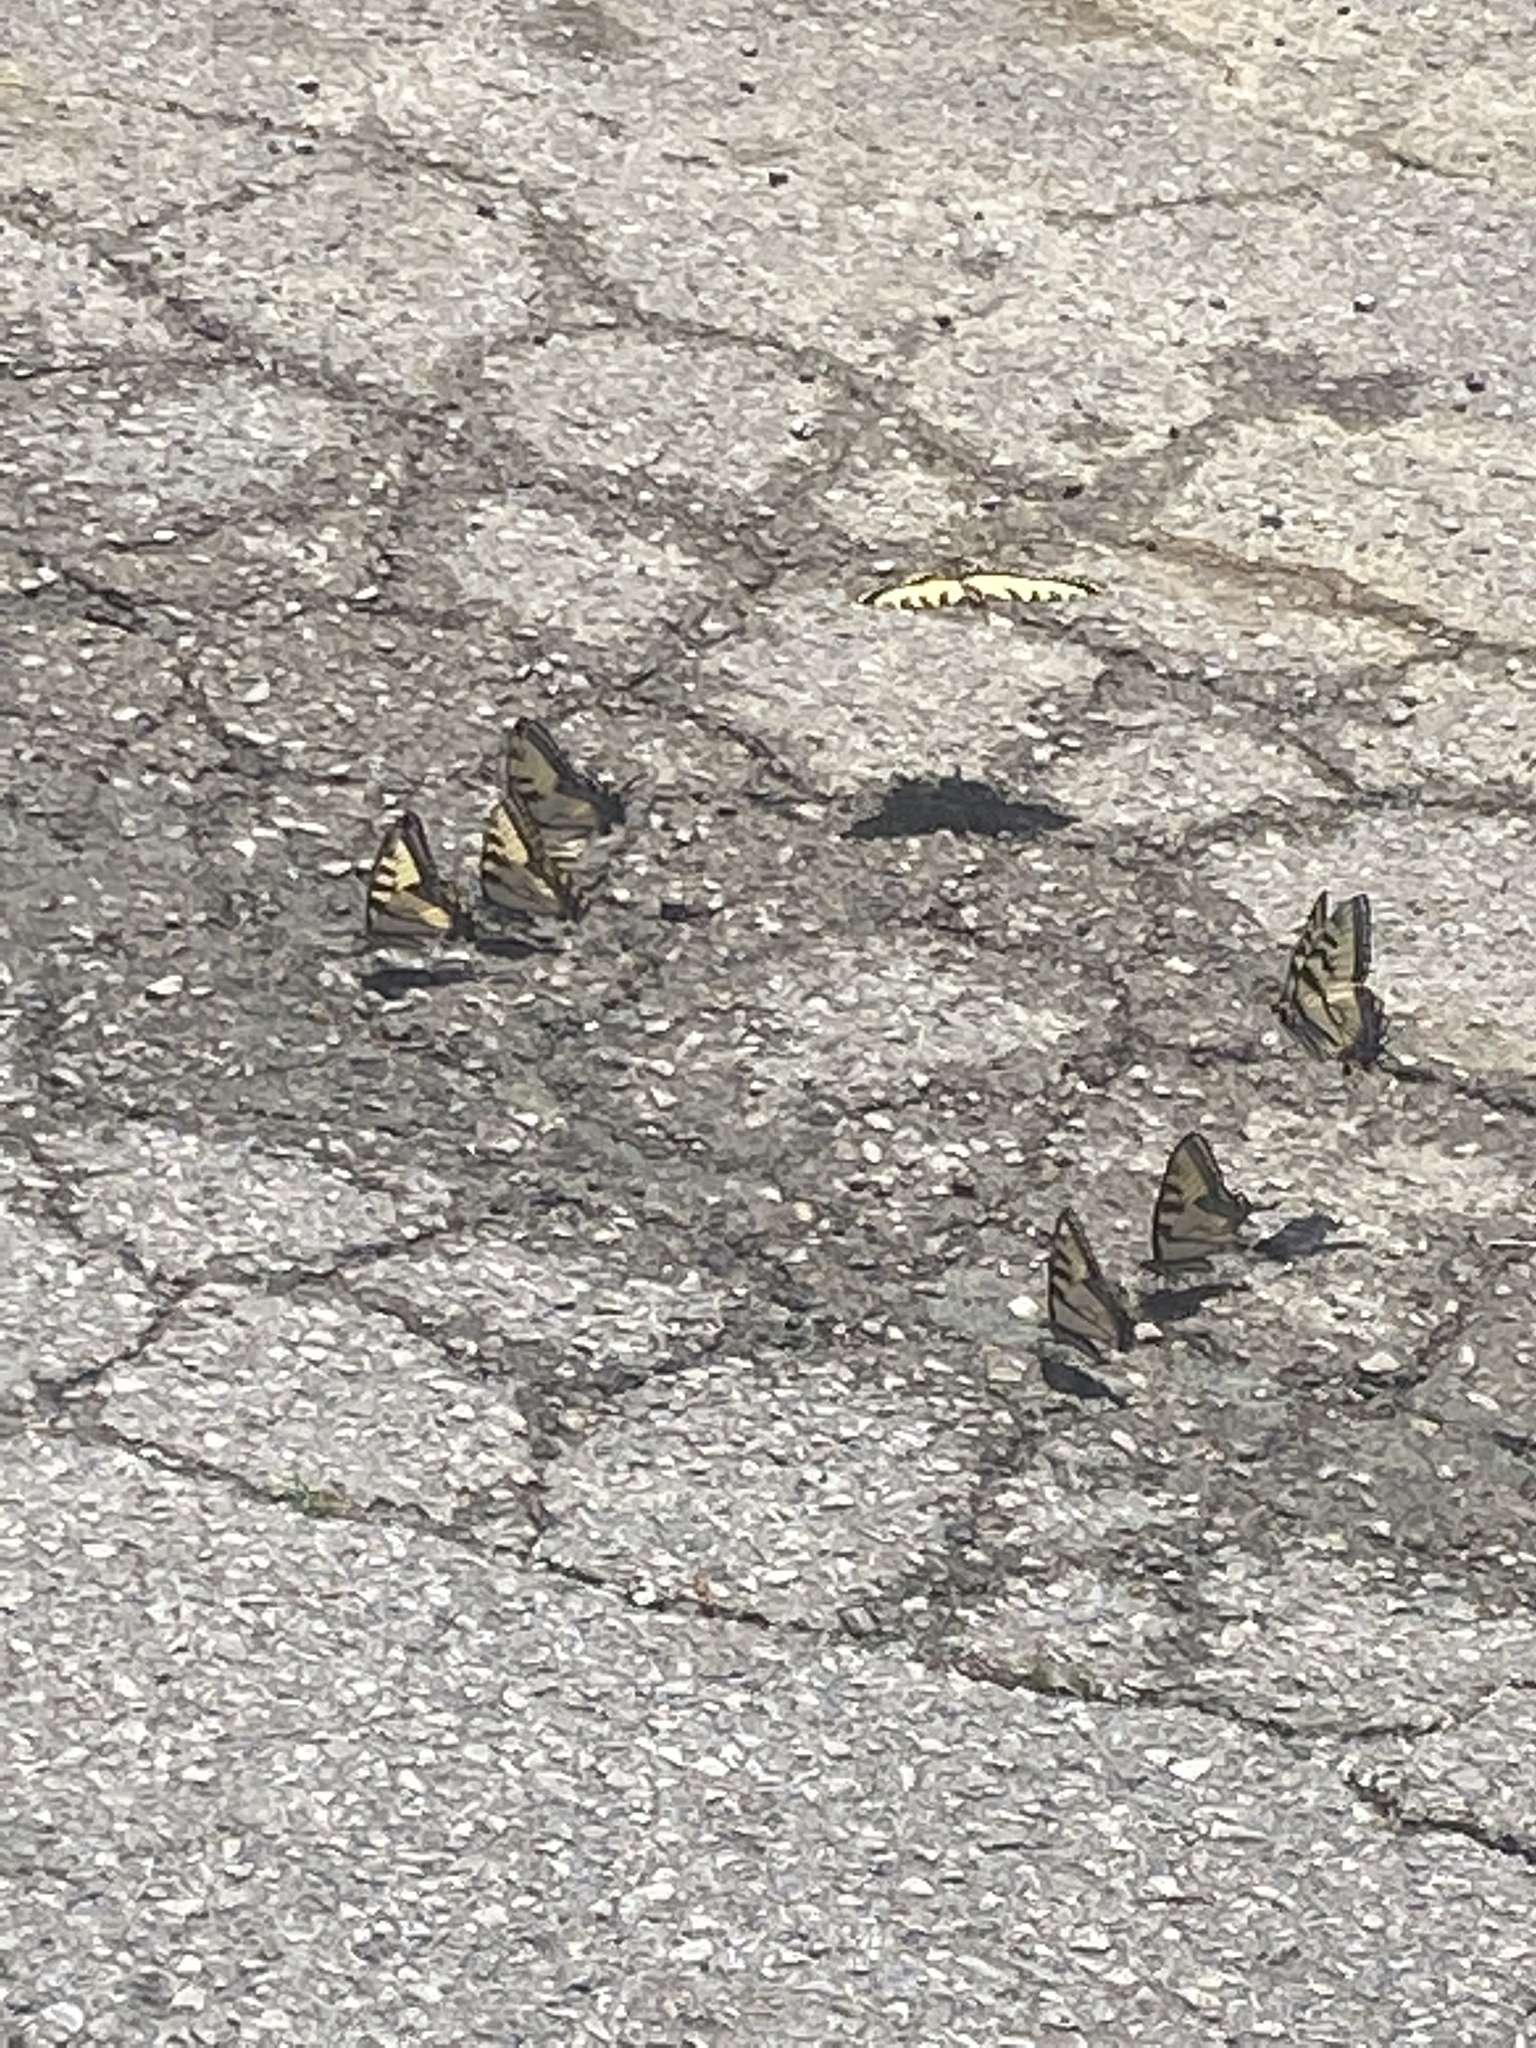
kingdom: Animalia
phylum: Arthropoda
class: Insecta
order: Lepidoptera
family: Papilionidae
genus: Papilio
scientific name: Papilio glaucus
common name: Tiger swallowtail
